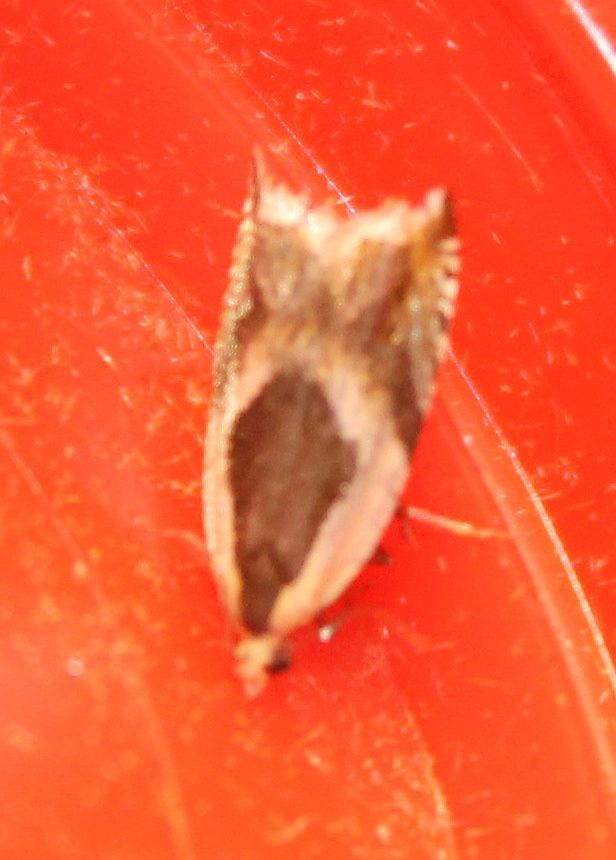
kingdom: Animalia
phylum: Arthropoda
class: Insecta
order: Lepidoptera
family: Tortricidae
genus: Ancylis
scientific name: Ancylis badiana
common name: Common roller
